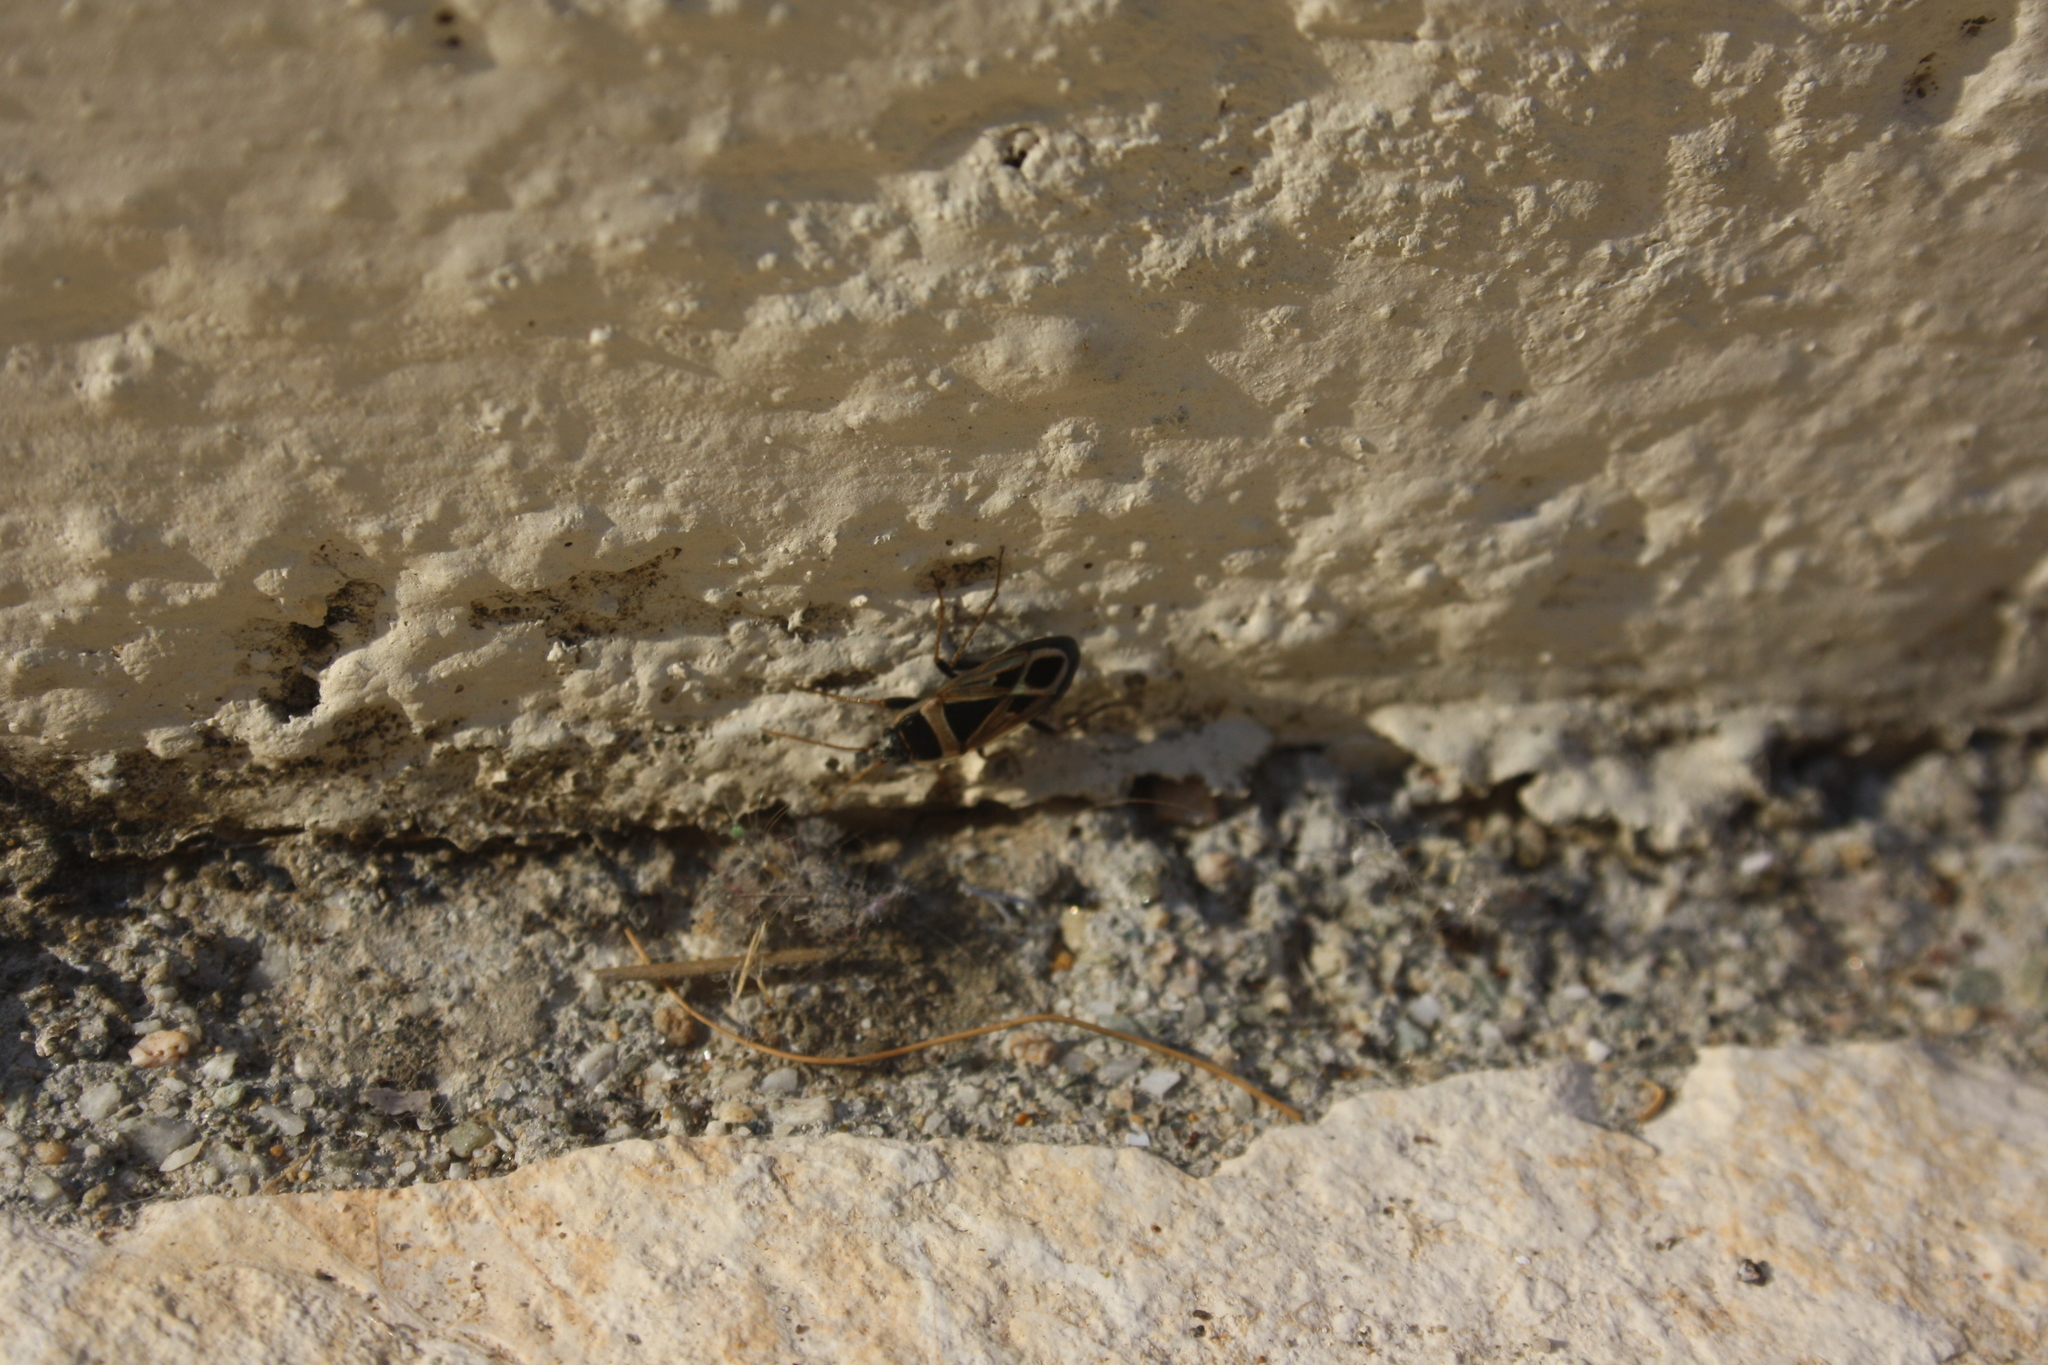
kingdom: Animalia
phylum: Arthropoda
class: Insecta
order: Hemiptera
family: Rhyparochromidae
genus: Xanthochilus
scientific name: Xanthochilus saturnius
